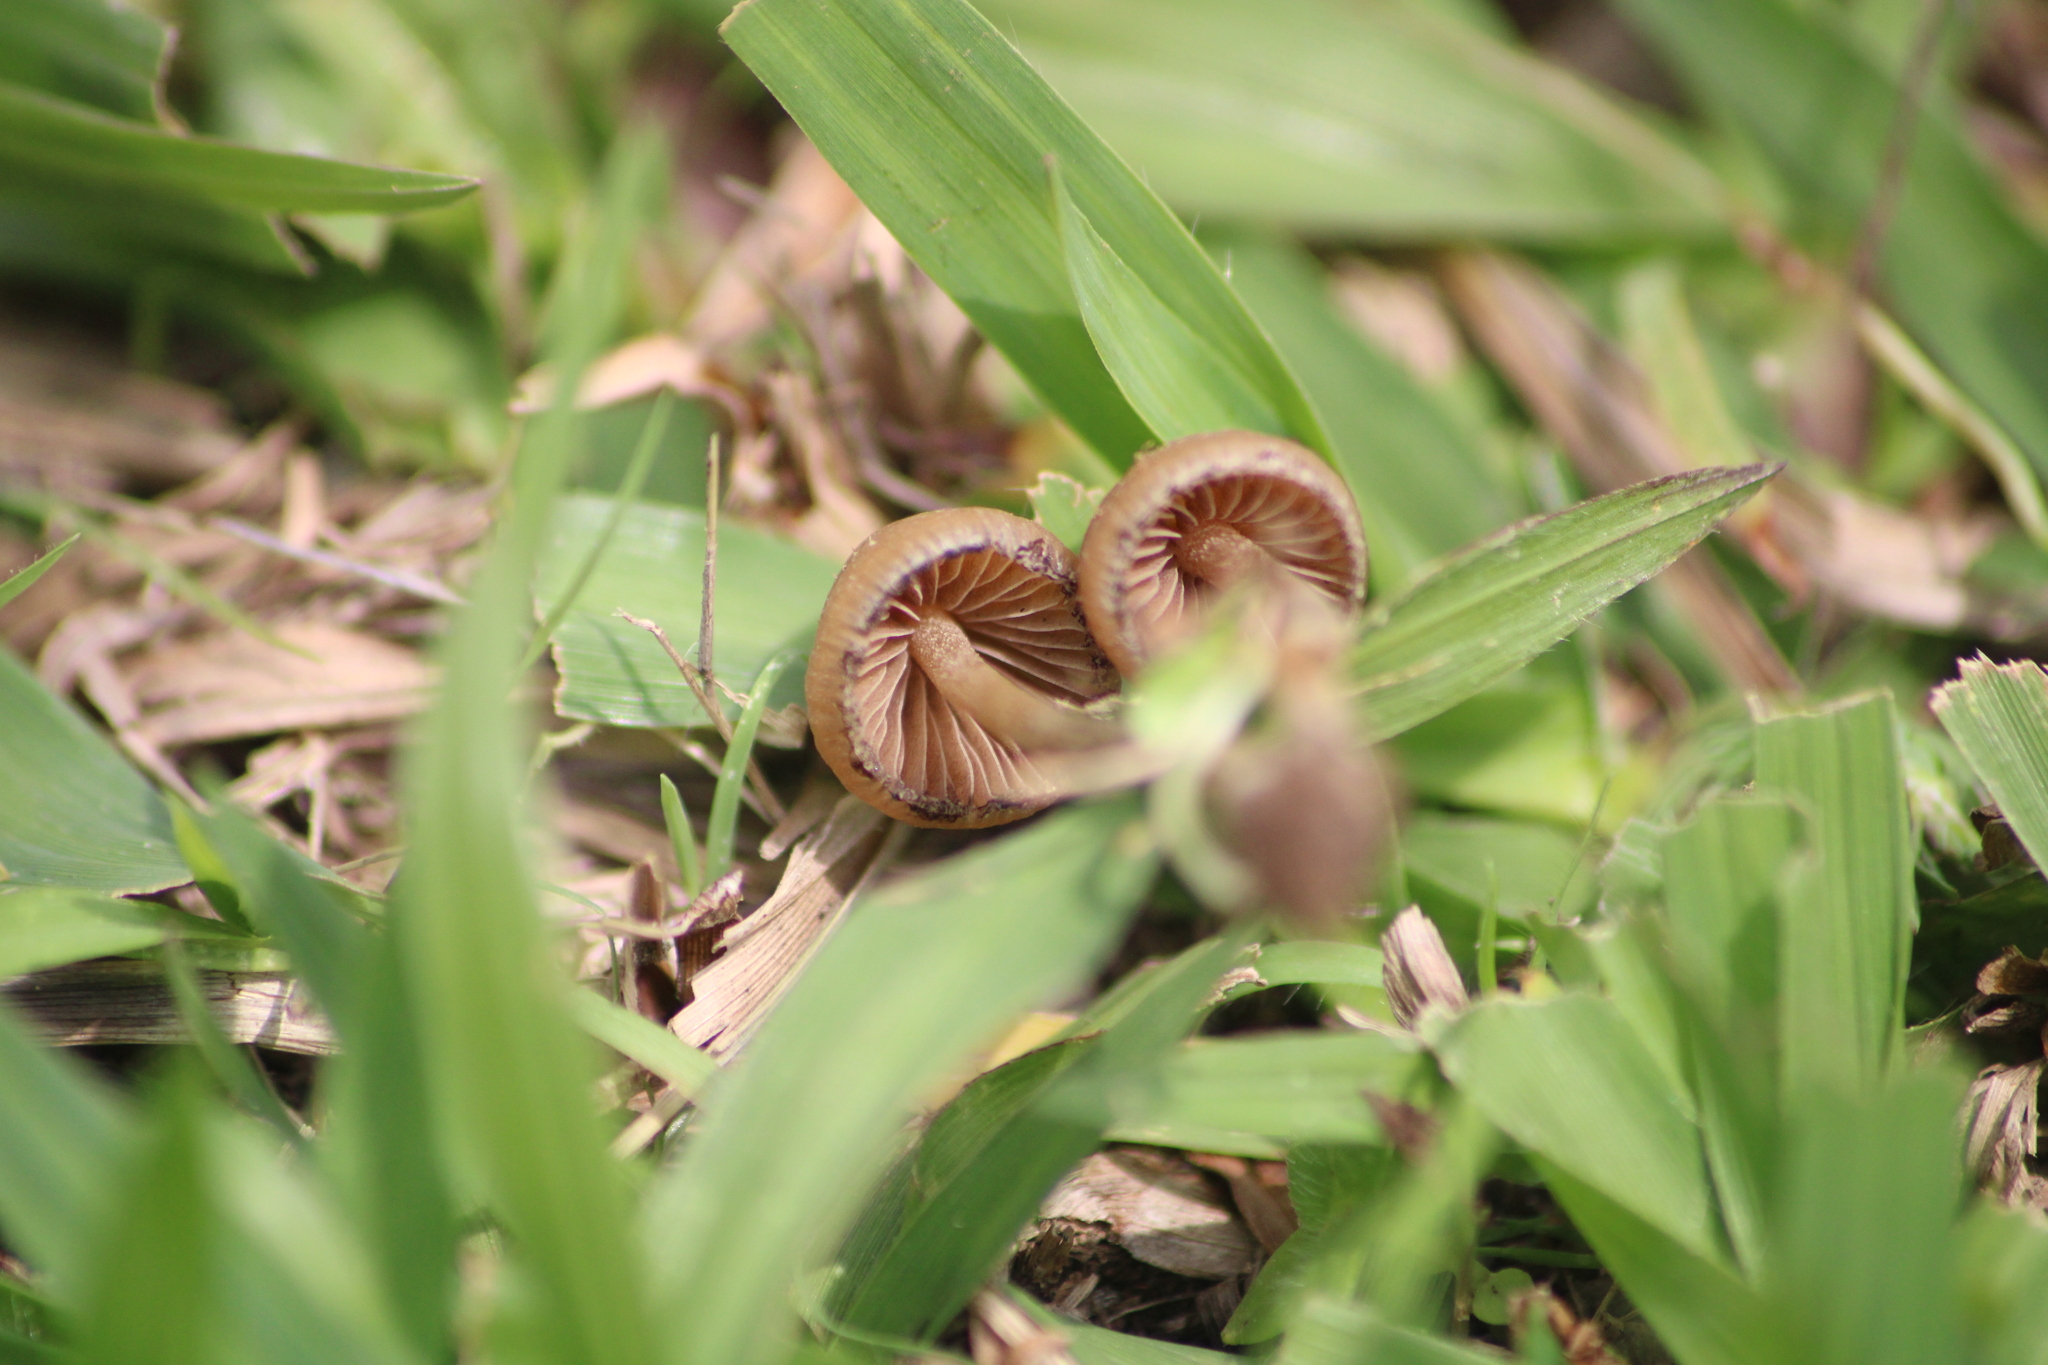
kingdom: Fungi
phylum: Basidiomycota
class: Agaricomycetes
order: Agaricales
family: Hymenogastraceae
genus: Psilocybe
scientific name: Psilocybe mexicana
